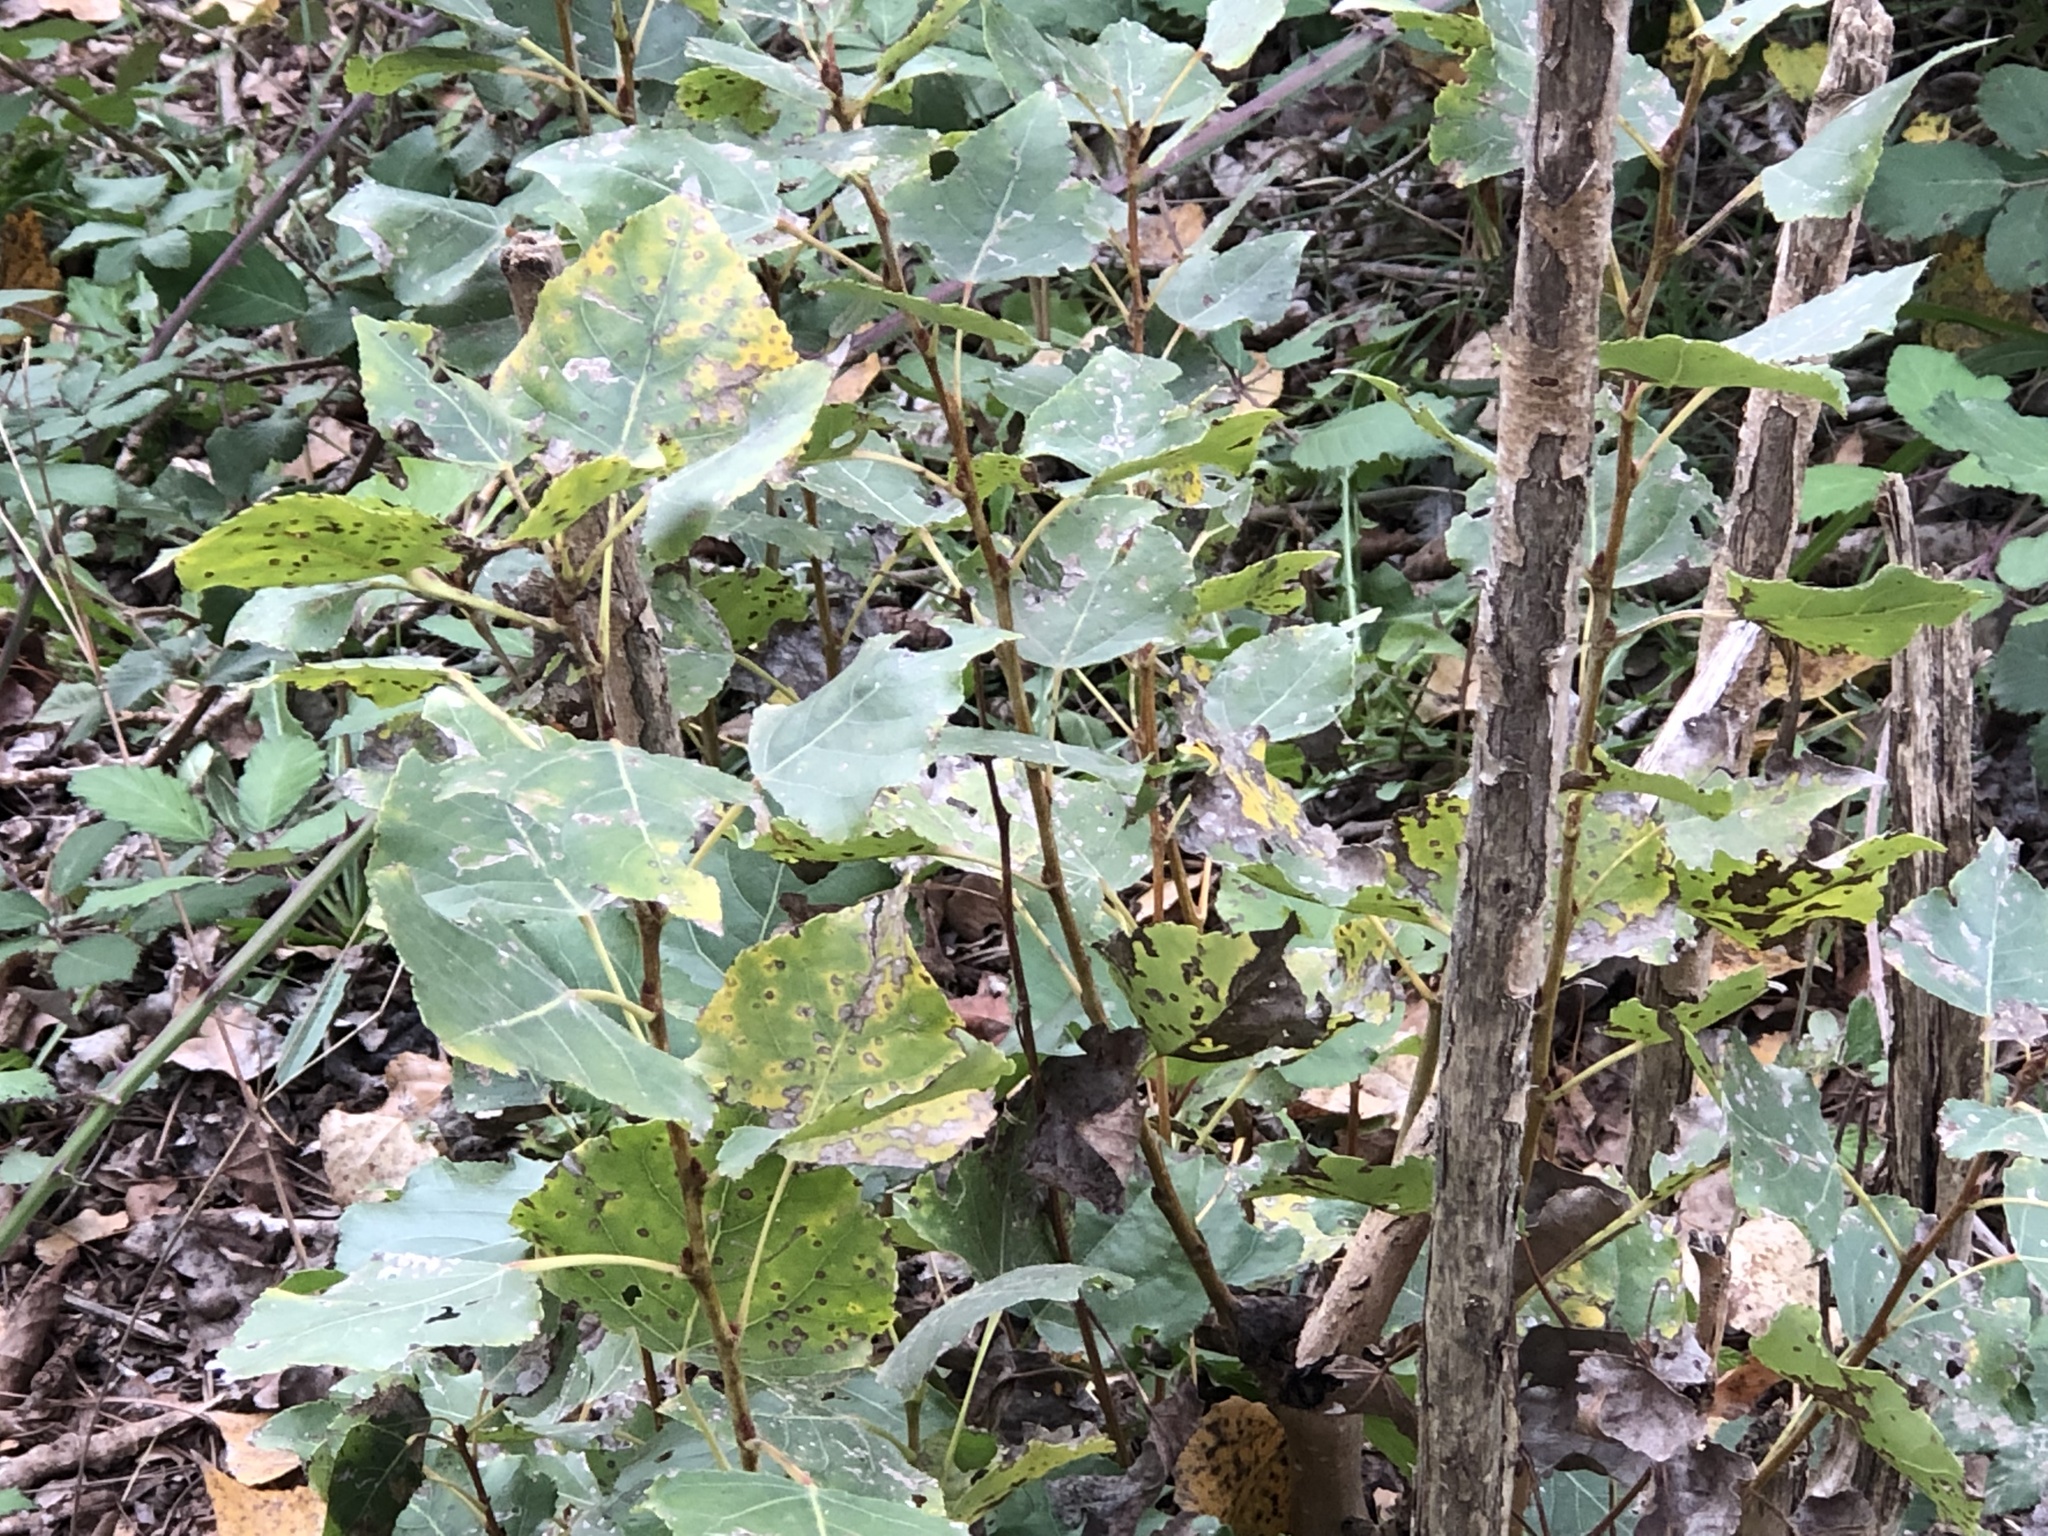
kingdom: Plantae
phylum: Tracheophyta
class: Magnoliopsida
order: Malpighiales
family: Salicaceae
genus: Populus
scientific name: Populus nigra
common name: Black poplar
